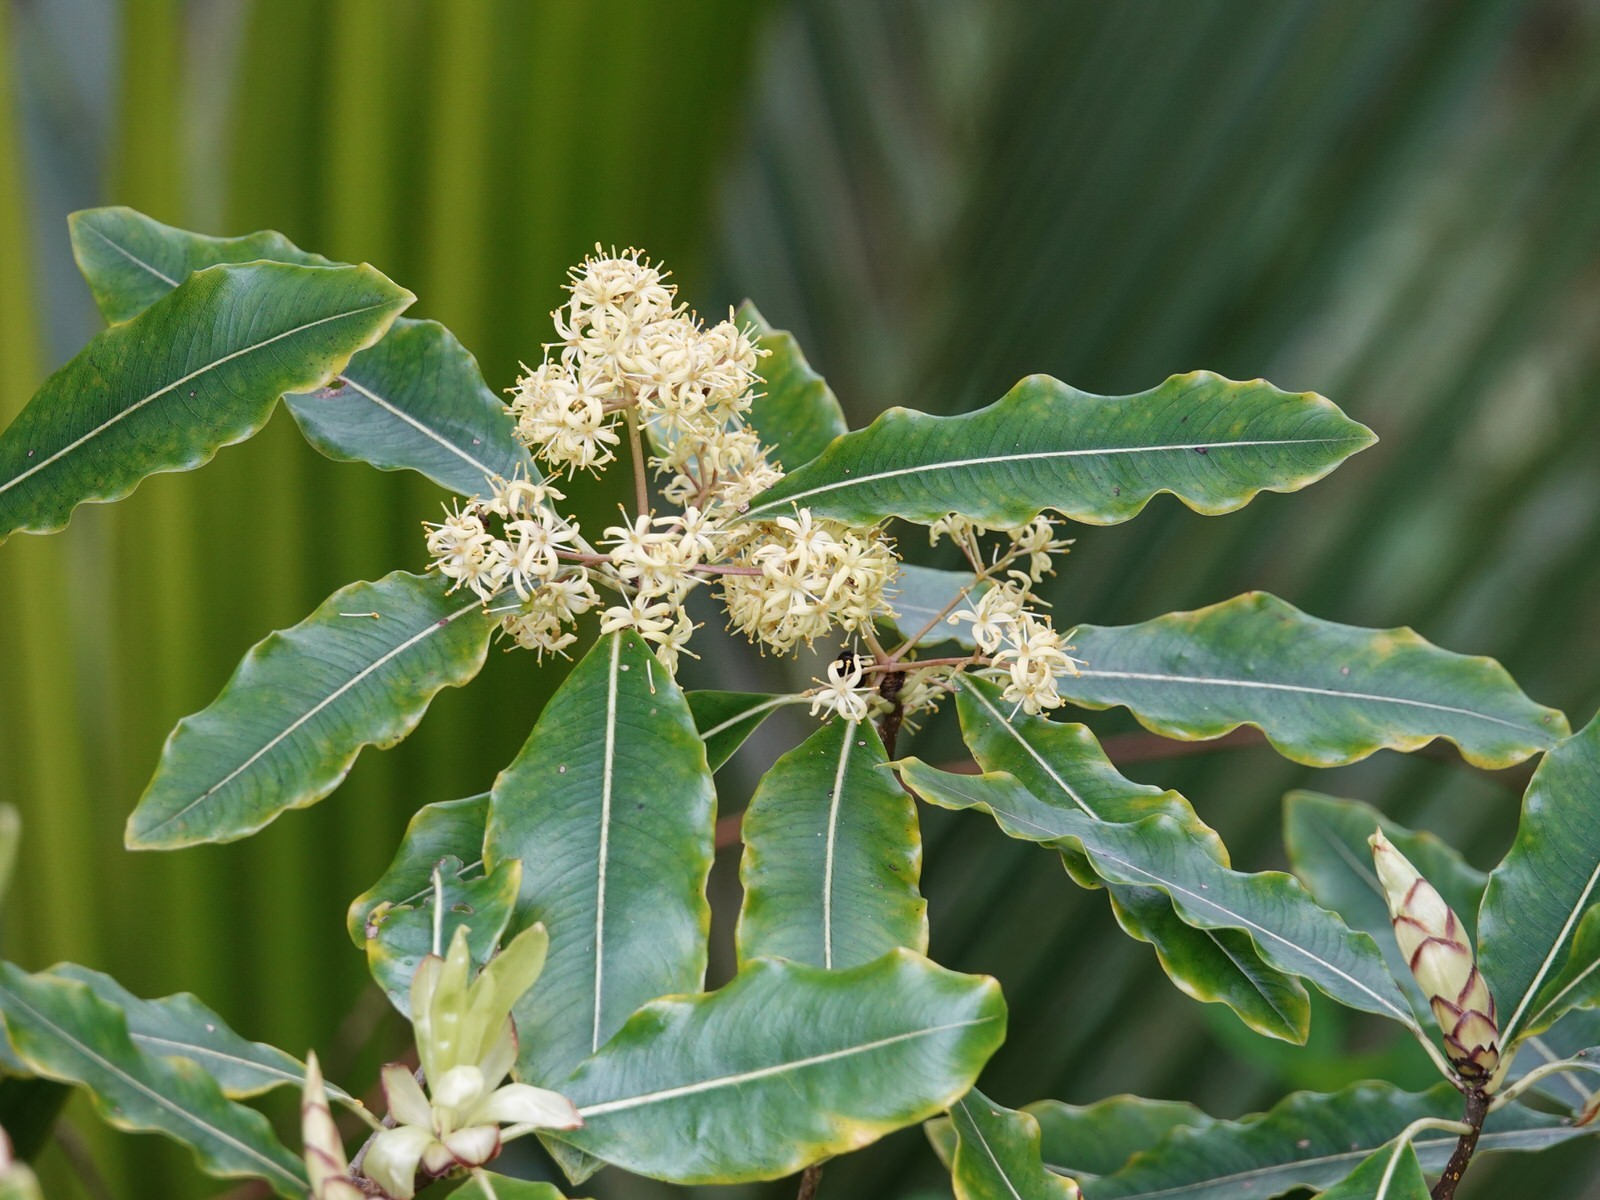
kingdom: Plantae
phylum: Tracheophyta
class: Magnoliopsida
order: Apiales
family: Pittosporaceae
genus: Pittosporum
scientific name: Pittosporum eugenioides
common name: Lemonwood
